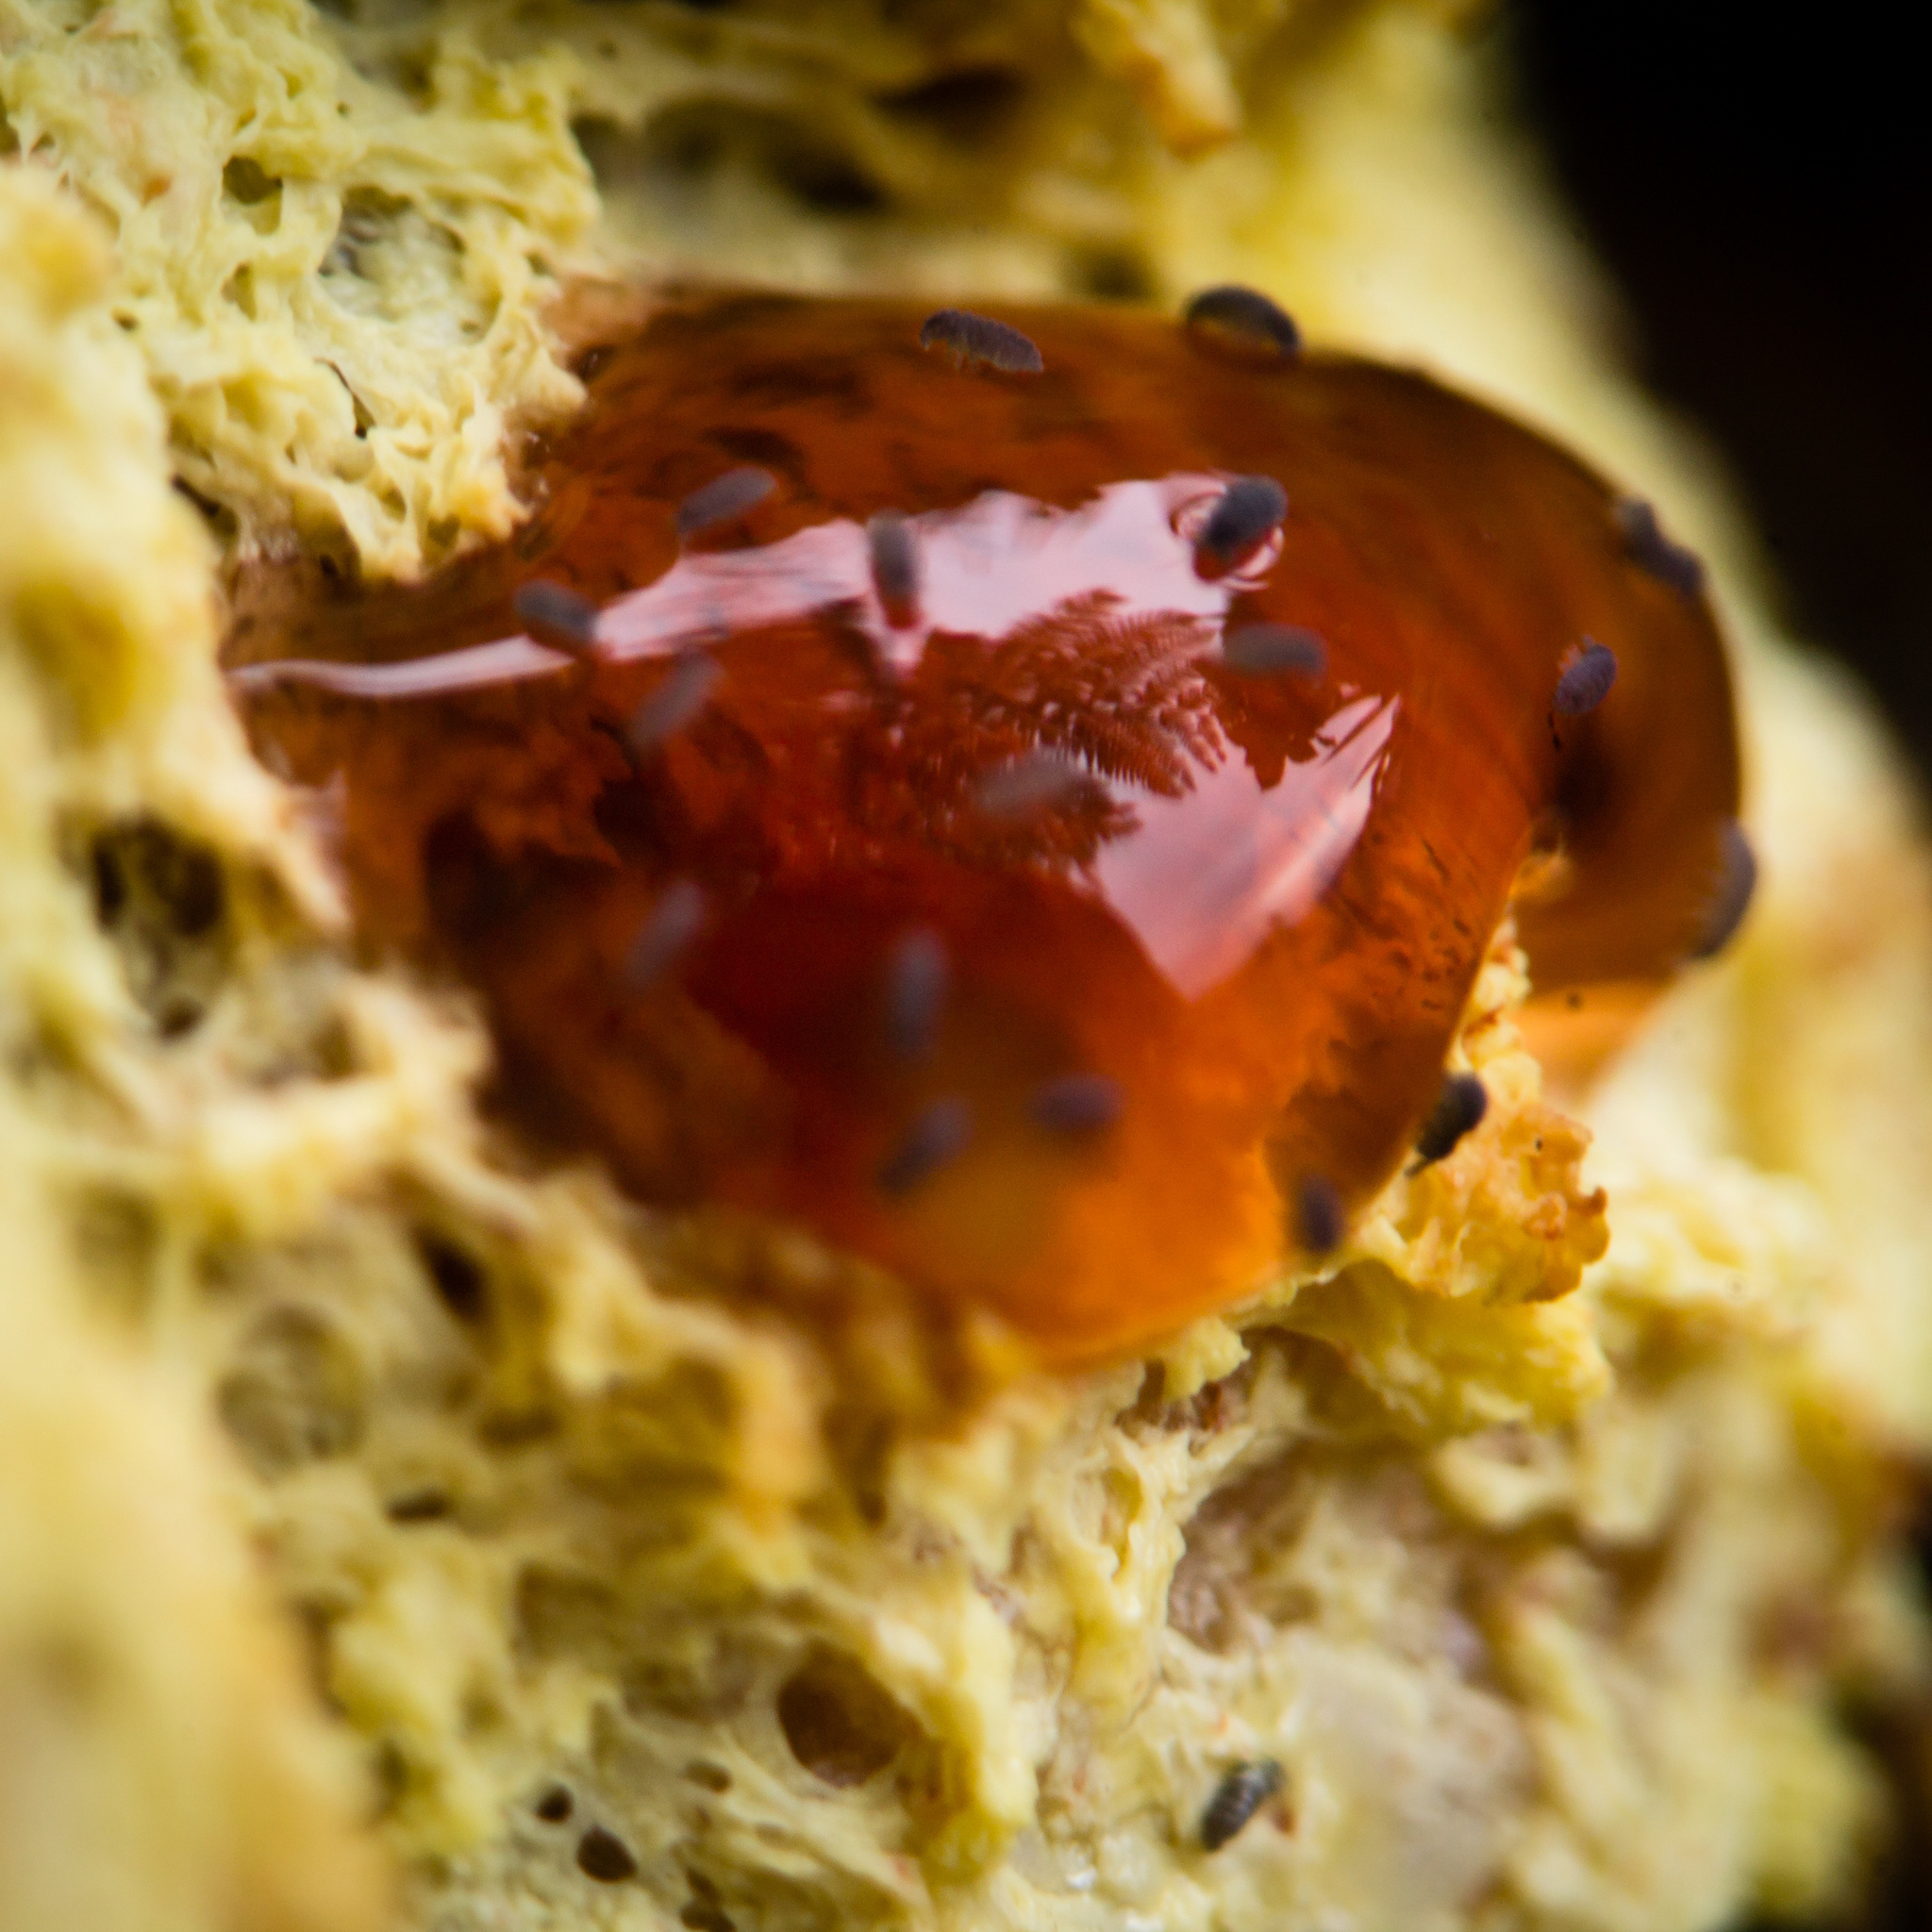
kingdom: Protozoa
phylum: Mycetozoa
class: Myxomycetes
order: Physarales
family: Physaraceae
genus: Fuligo
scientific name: Fuligo septica
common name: Dog vomit slime mold
